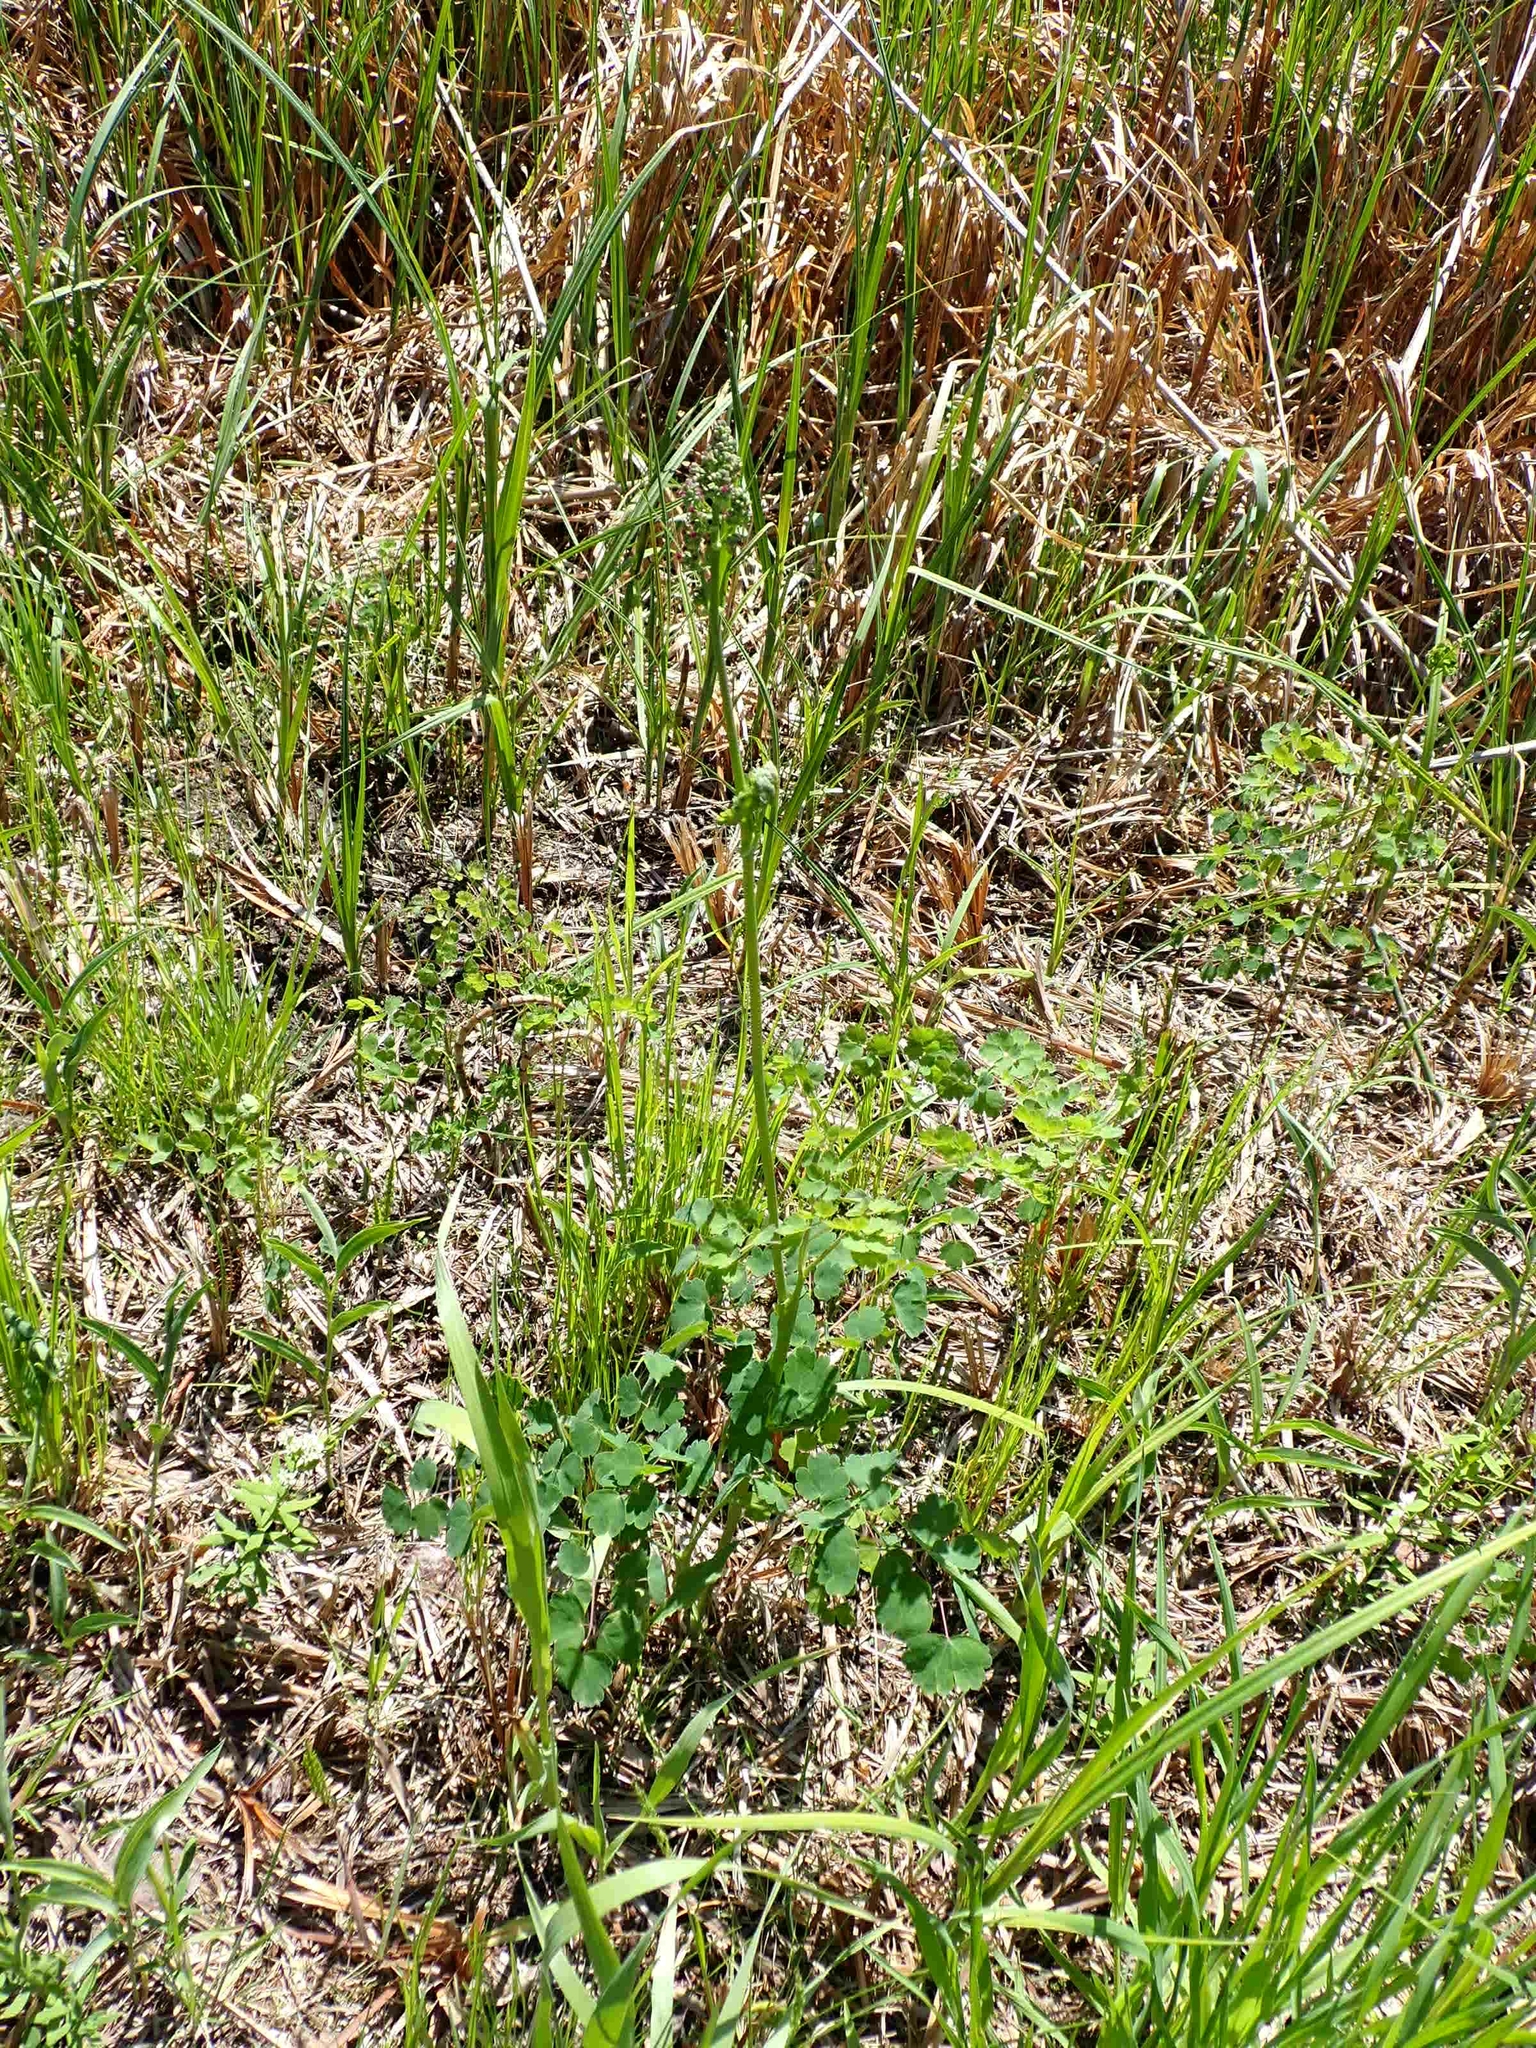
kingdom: Plantae
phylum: Tracheophyta
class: Magnoliopsida
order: Ranunculales
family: Ranunculaceae
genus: Thalictrum
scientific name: Thalictrum venulosum
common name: Early meadow-rue
